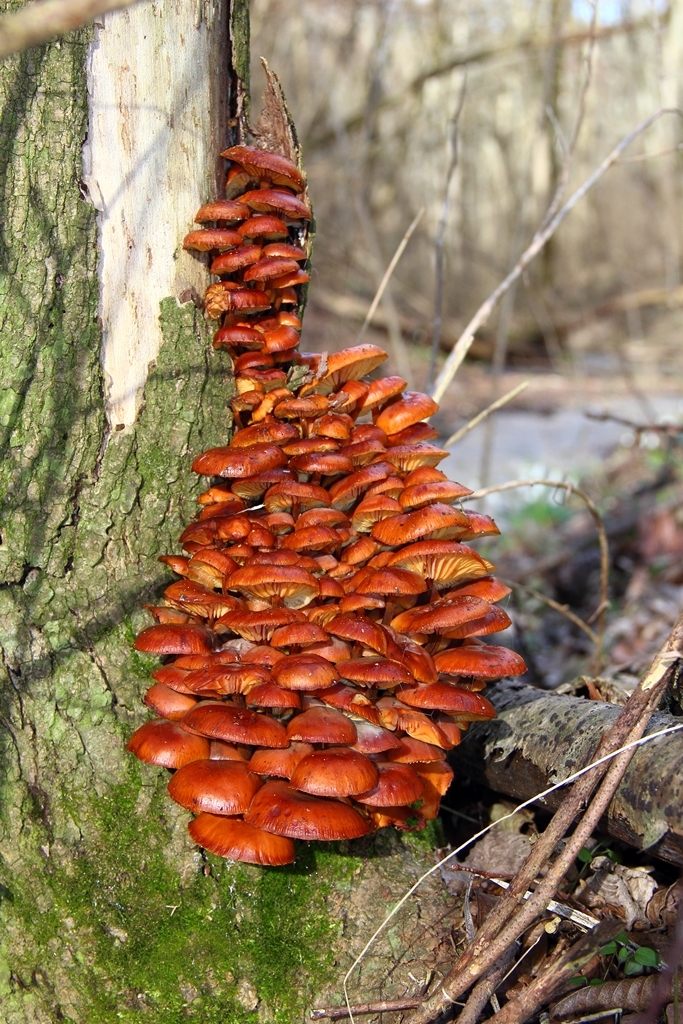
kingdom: Fungi
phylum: Basidiomycota
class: Agaricomycetes
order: Agaricales
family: Physalacriaceae
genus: Flammulina
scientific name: Flammulina
